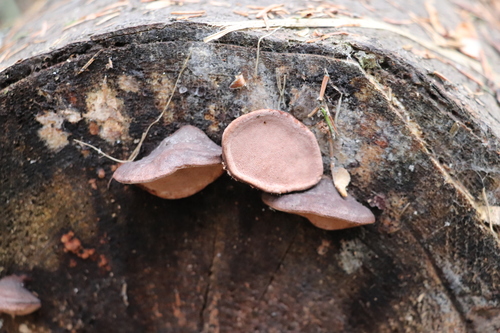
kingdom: Fungi
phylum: Basidiomycota
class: Agaricomycetes
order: Polyporales
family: Fomitopsidaceae
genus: Rhodofomes
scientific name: Rhodofomes roseus
